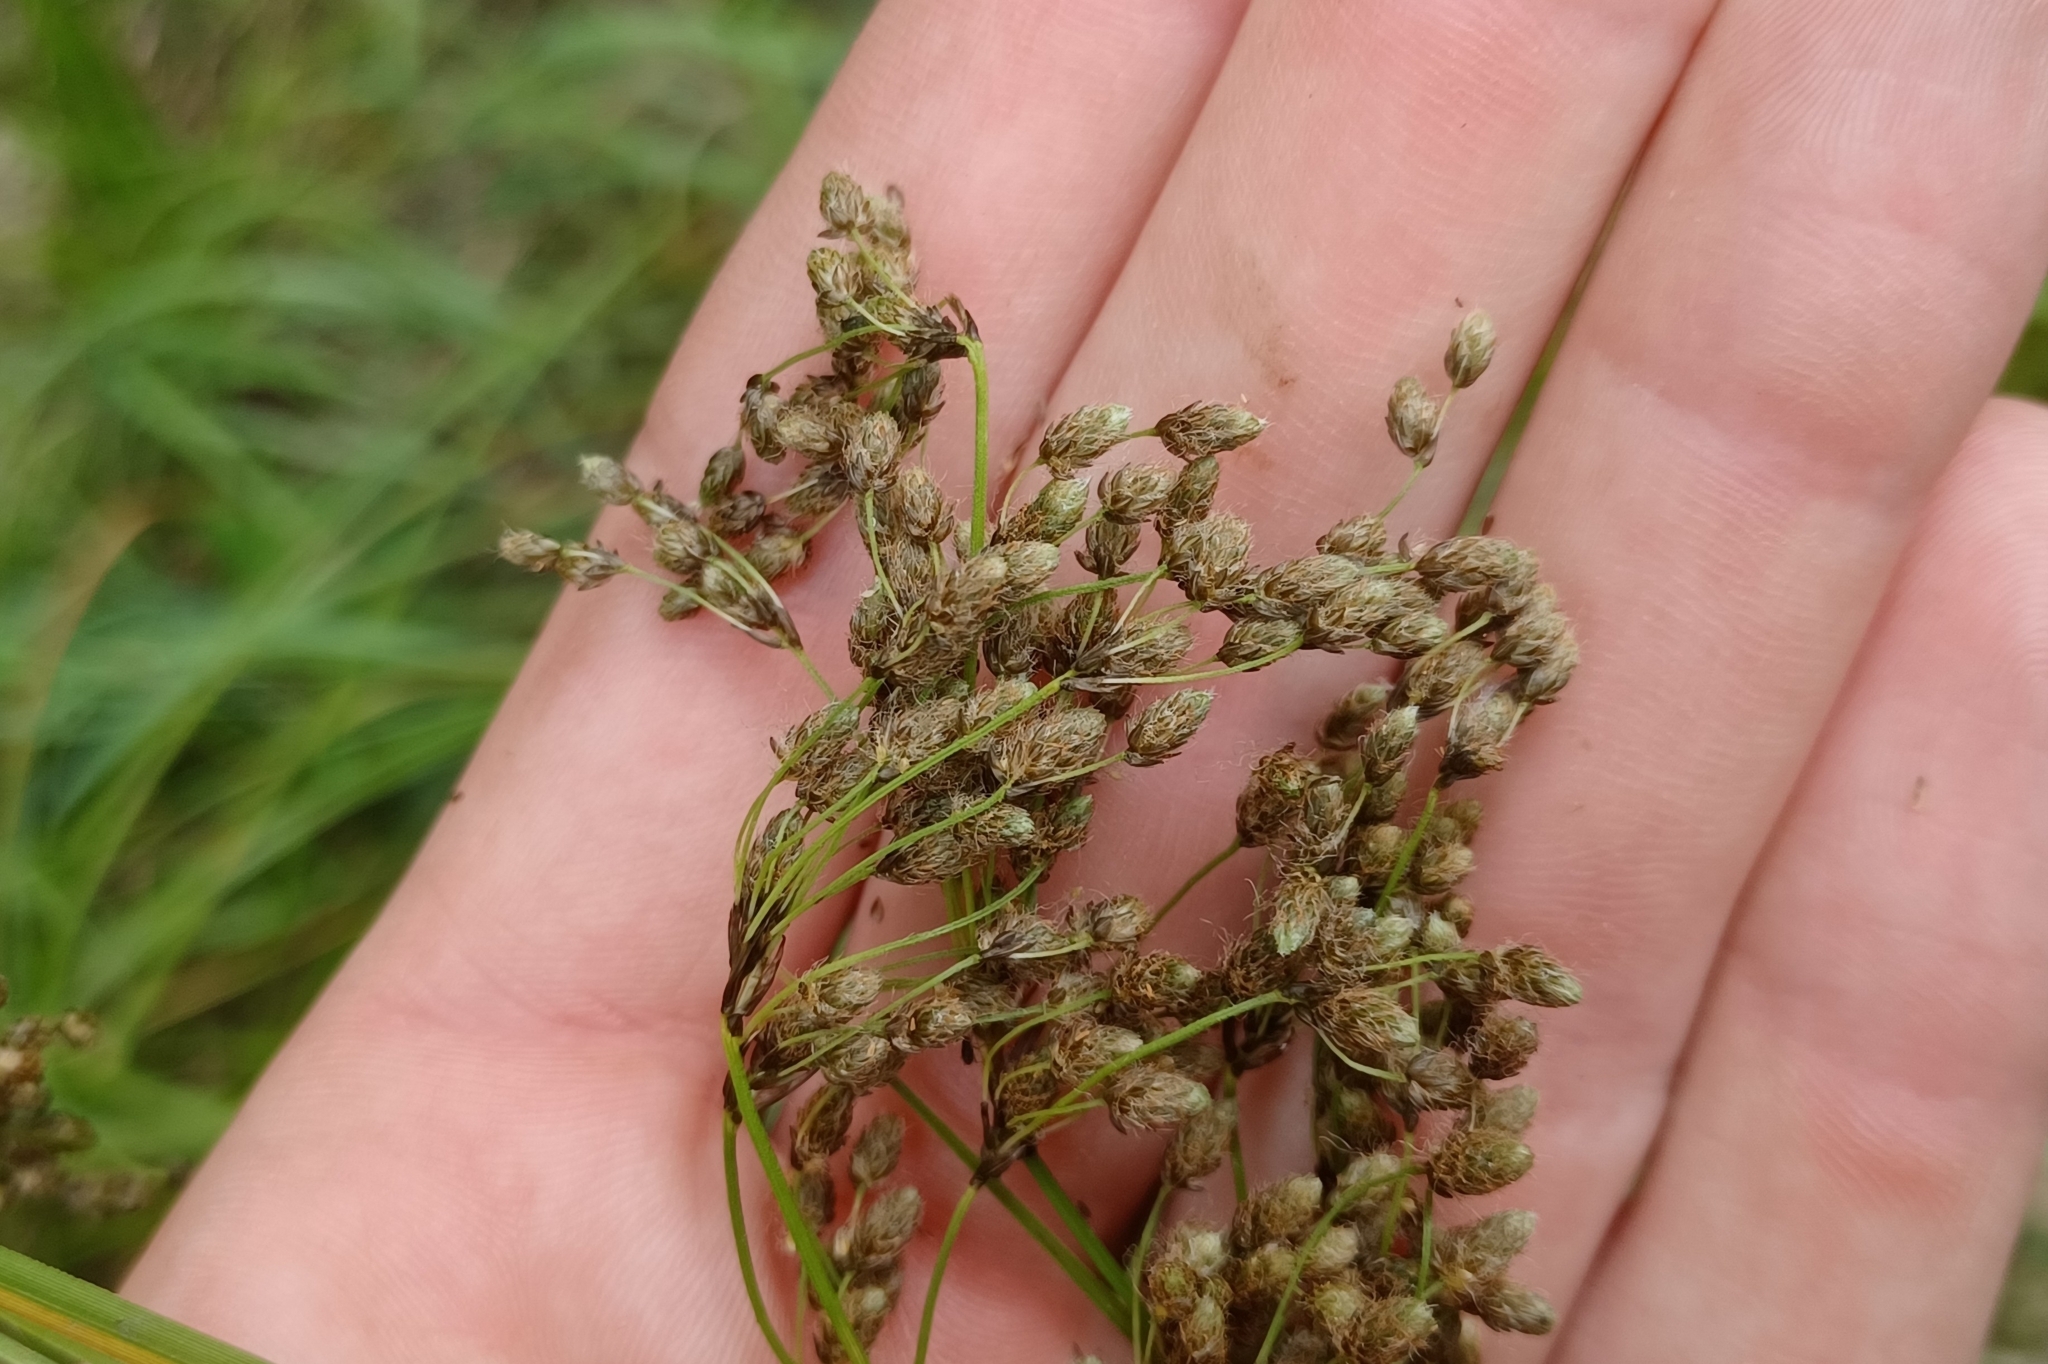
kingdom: Plantae
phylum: Tracheophyta
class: Liliopsida
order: Poales
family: Cyperaceae
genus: Scirpus
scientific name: Scirpus atrocinctus
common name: Black-girdled bulrush
